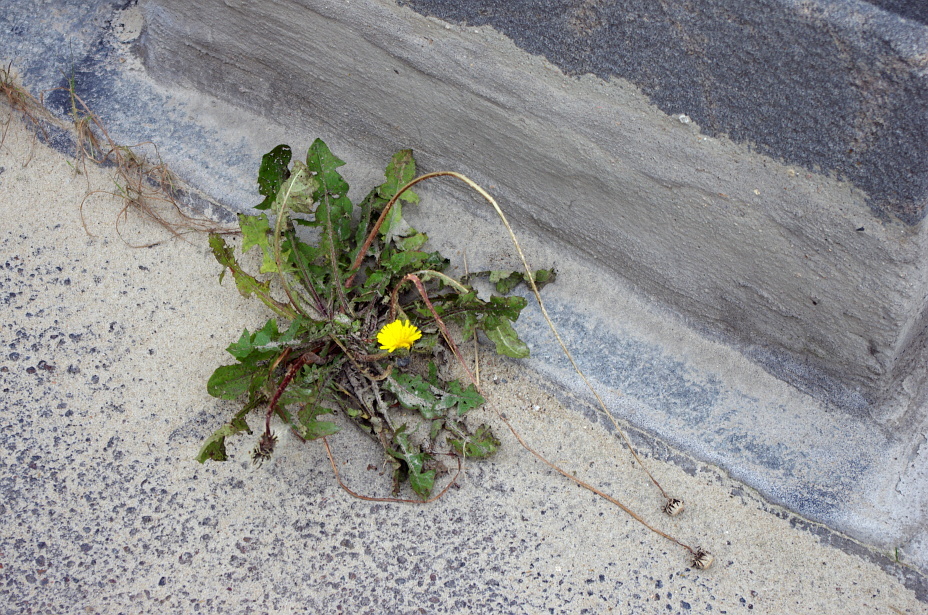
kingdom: Plantae
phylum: Tracheophyta
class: Magnoliopsida
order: Asterales
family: Asteraceae
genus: Taraxacum
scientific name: Taraxacum officinale
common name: Common dandelion
